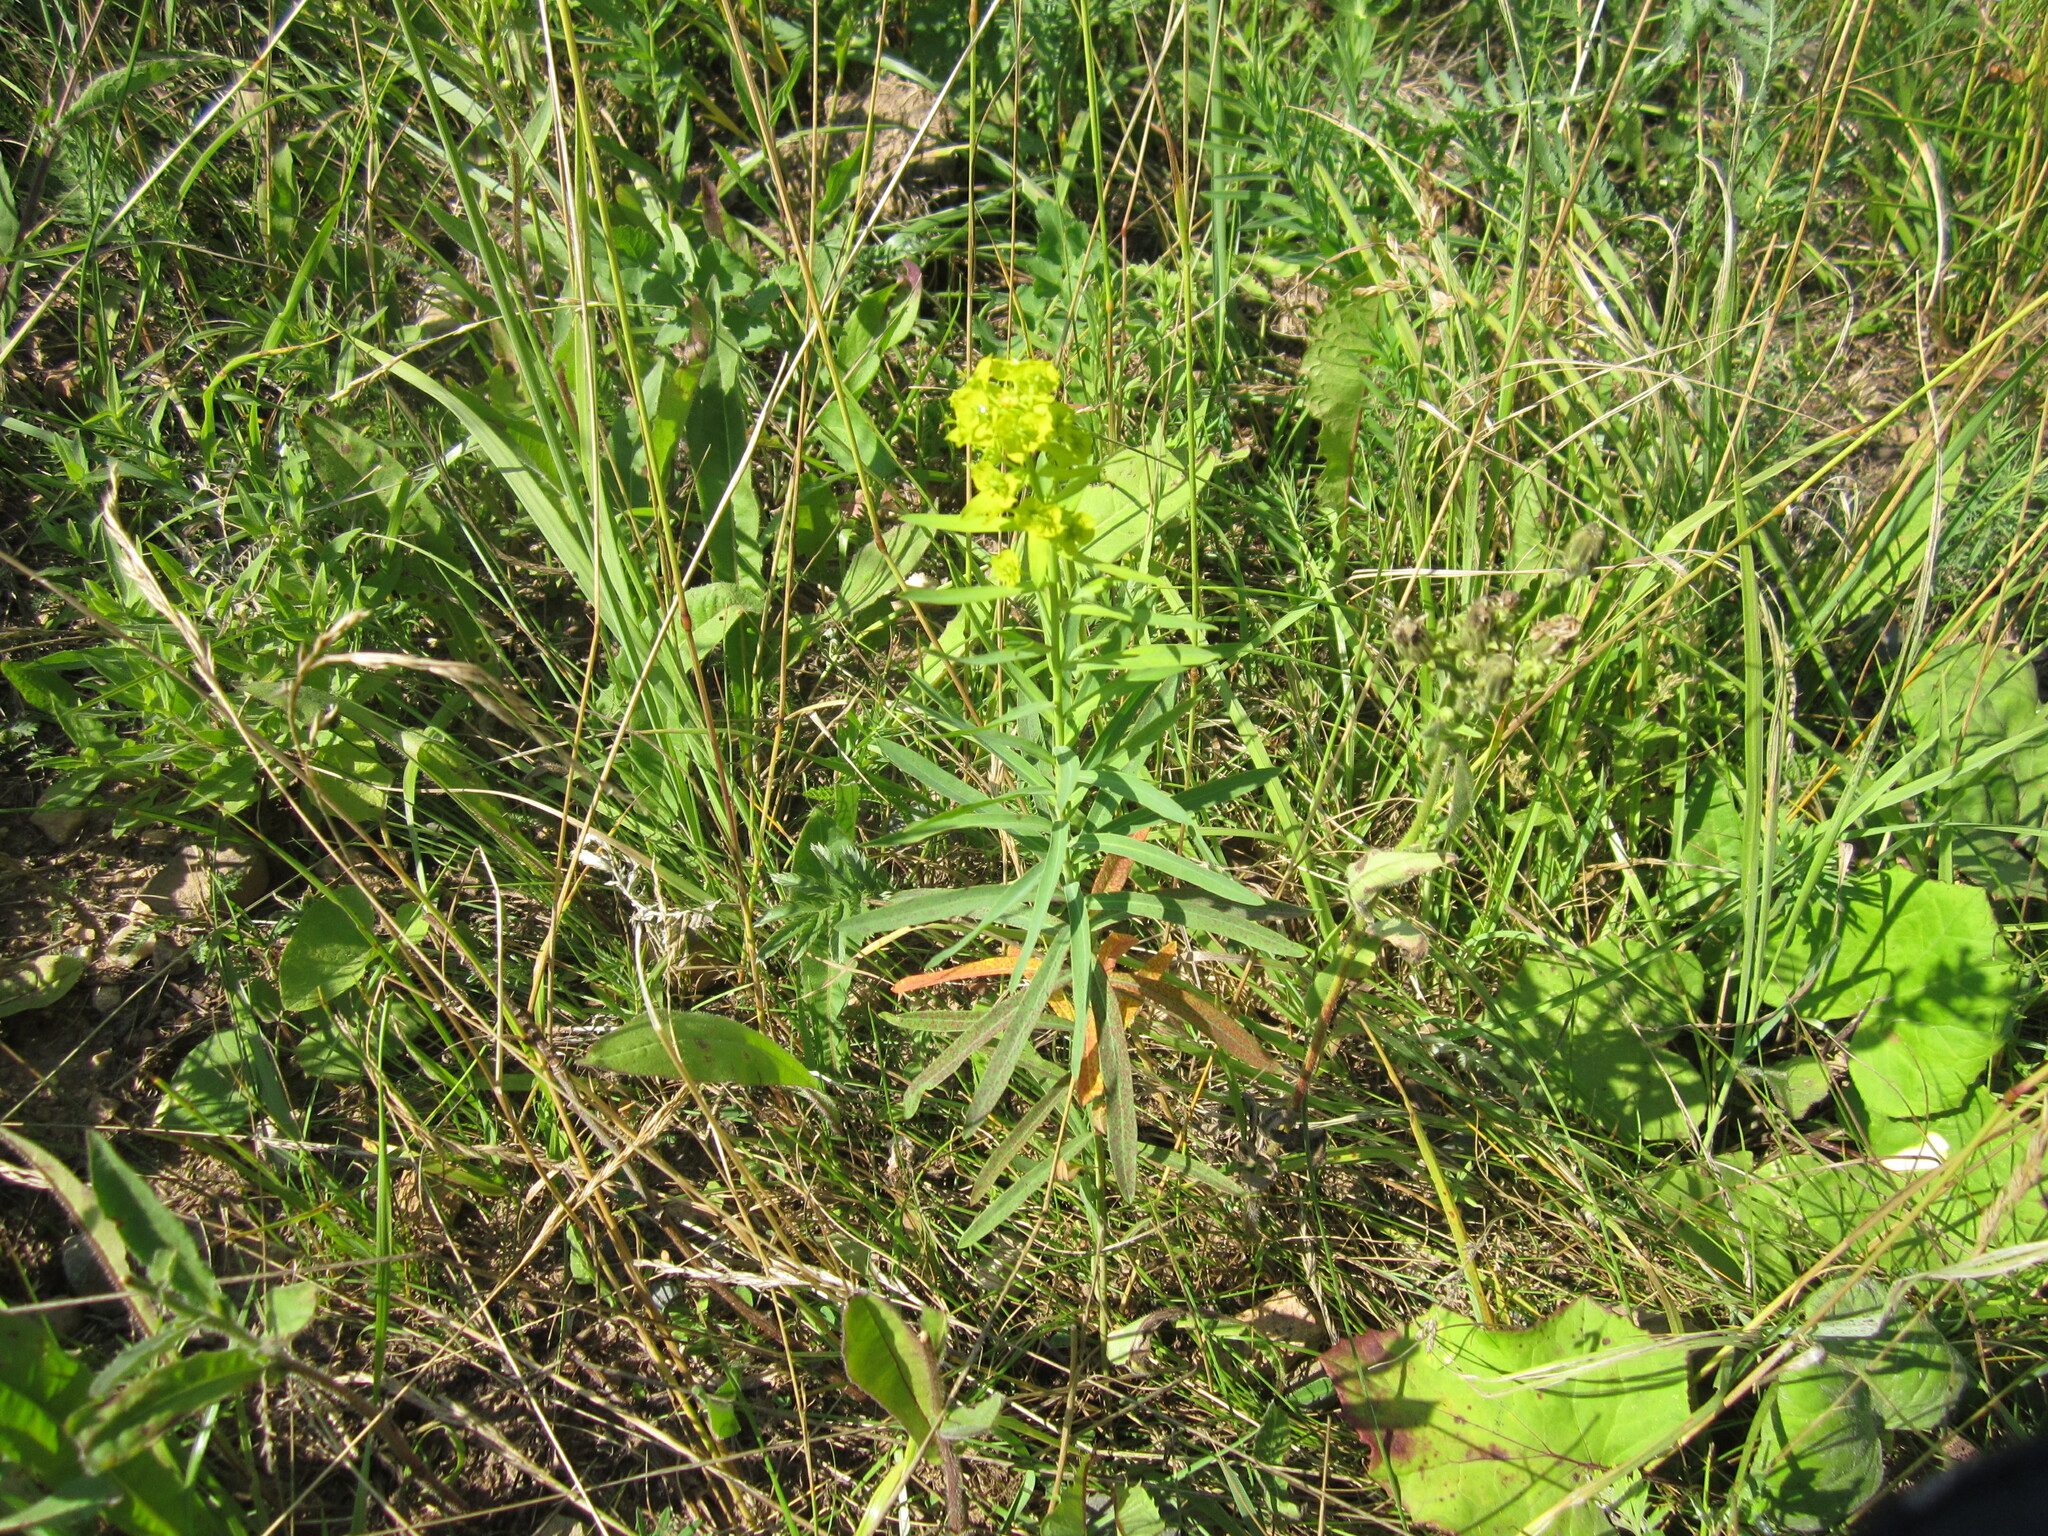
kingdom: Plantae
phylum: Tracheophyta
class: Magnoliopsida
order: Malpighiales
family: Euphorbiaceae
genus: Euphorbia
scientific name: Euphorbia virgata
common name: Leafy spurge
